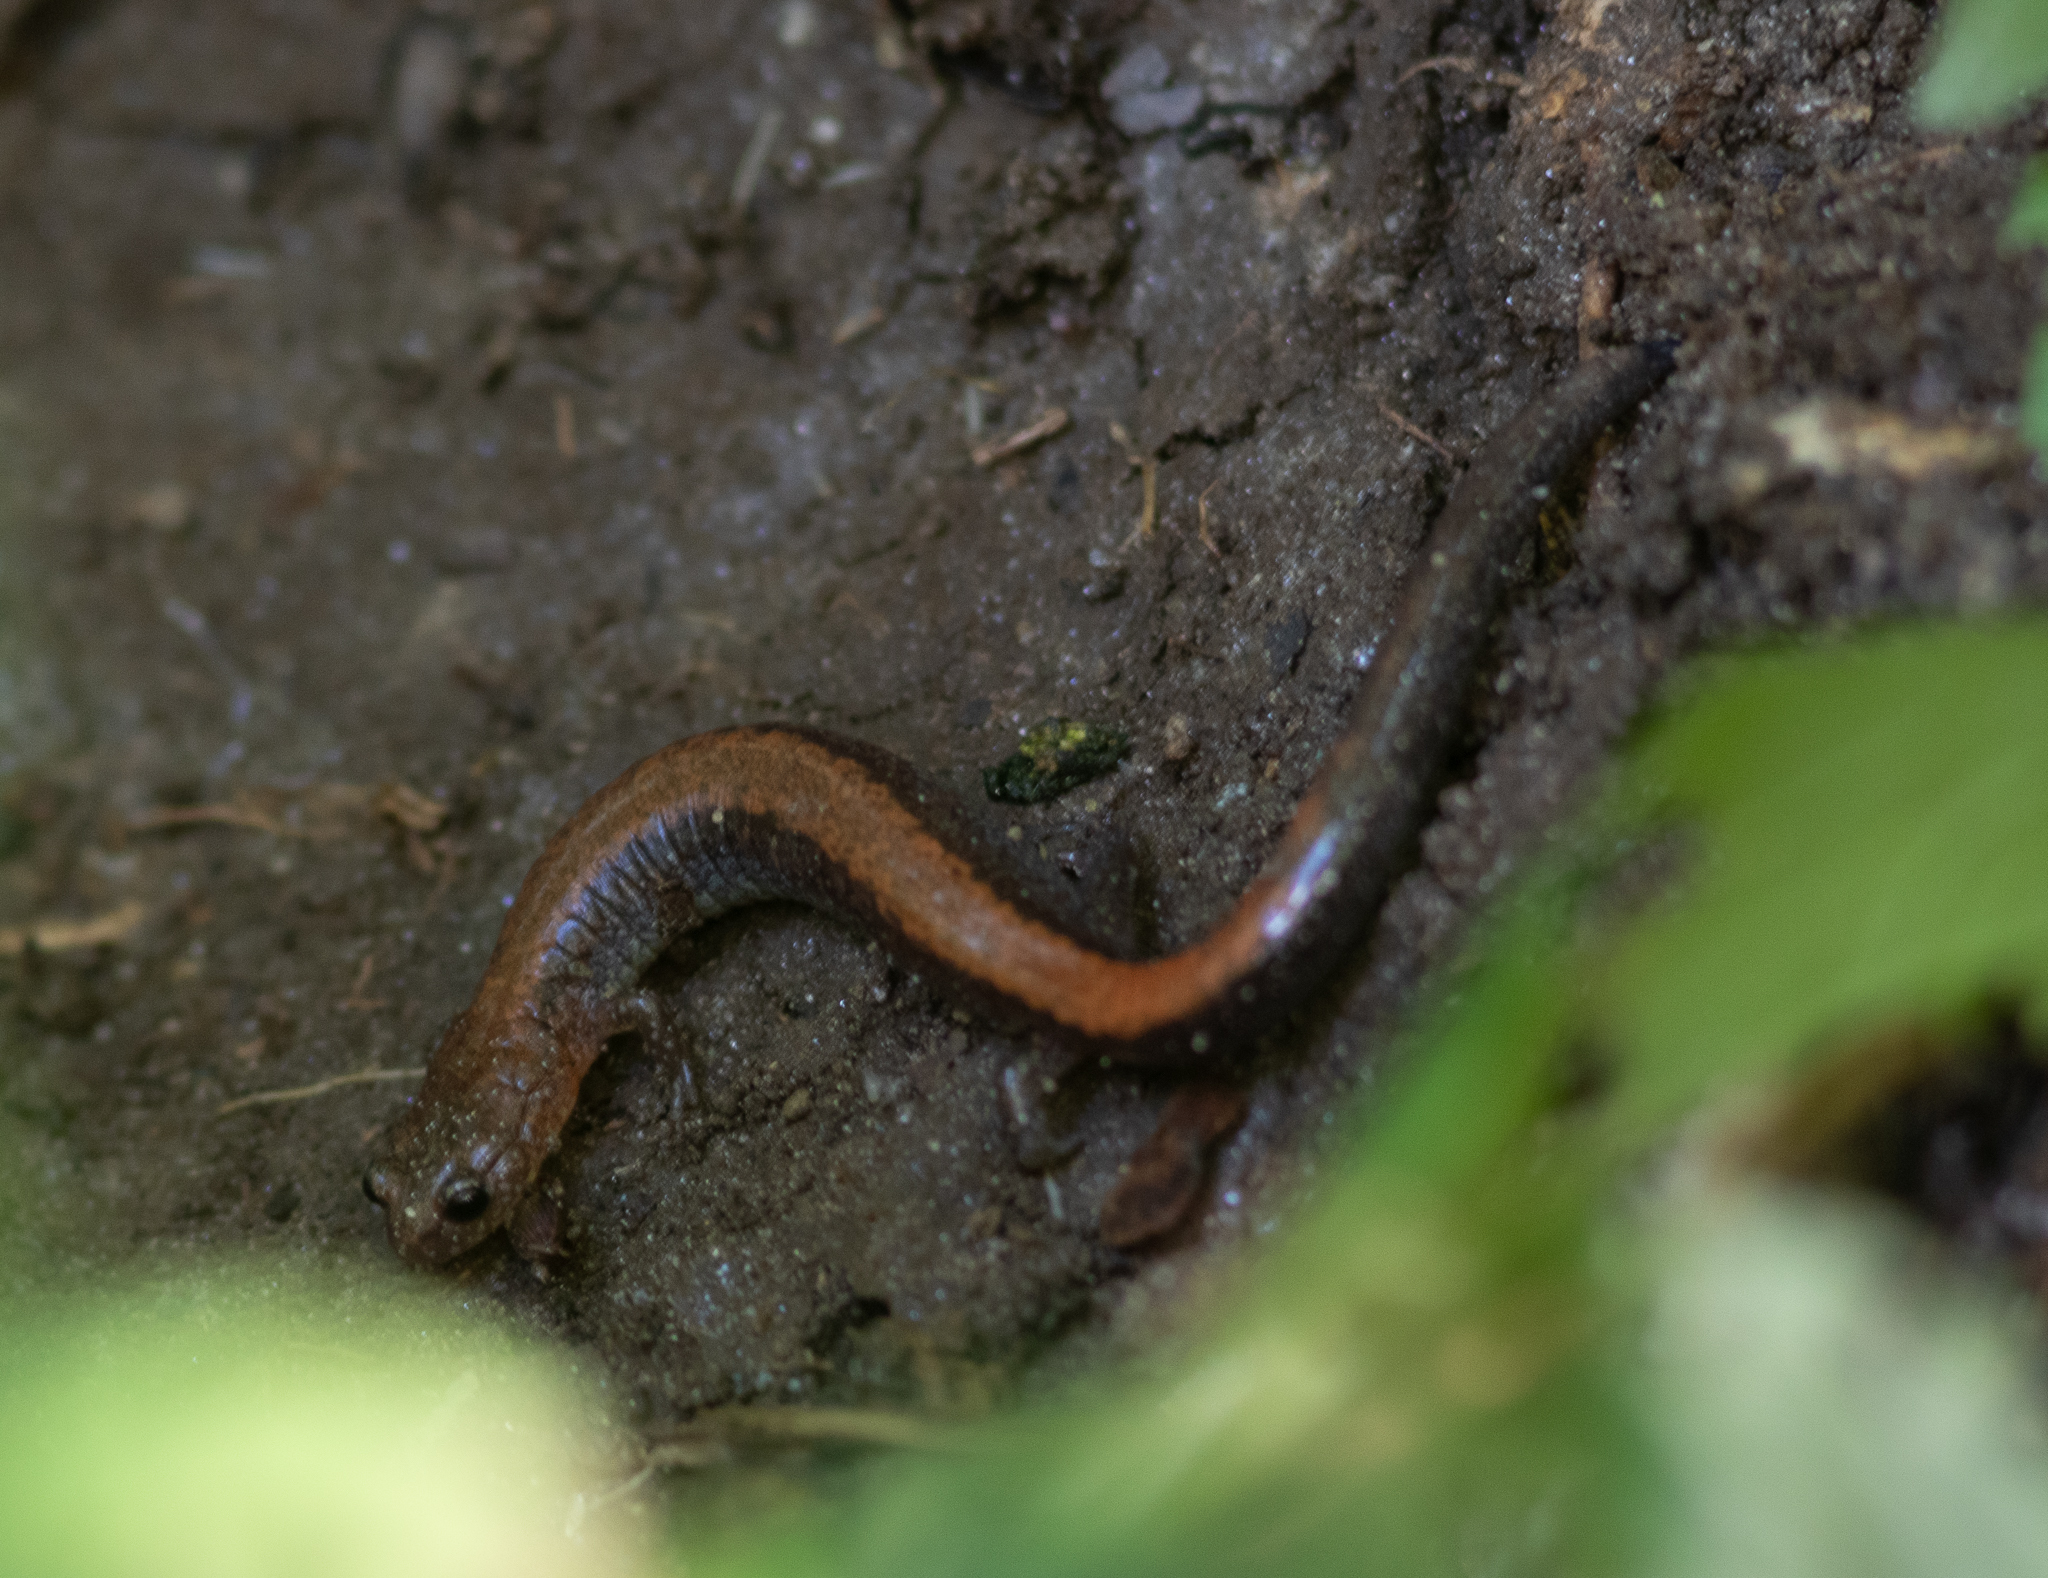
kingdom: Animalia
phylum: Chordata
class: Amphibia
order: Caudata
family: Plethodontidae
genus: Plethodon
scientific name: Plethodon cinereus
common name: Redback salamander
